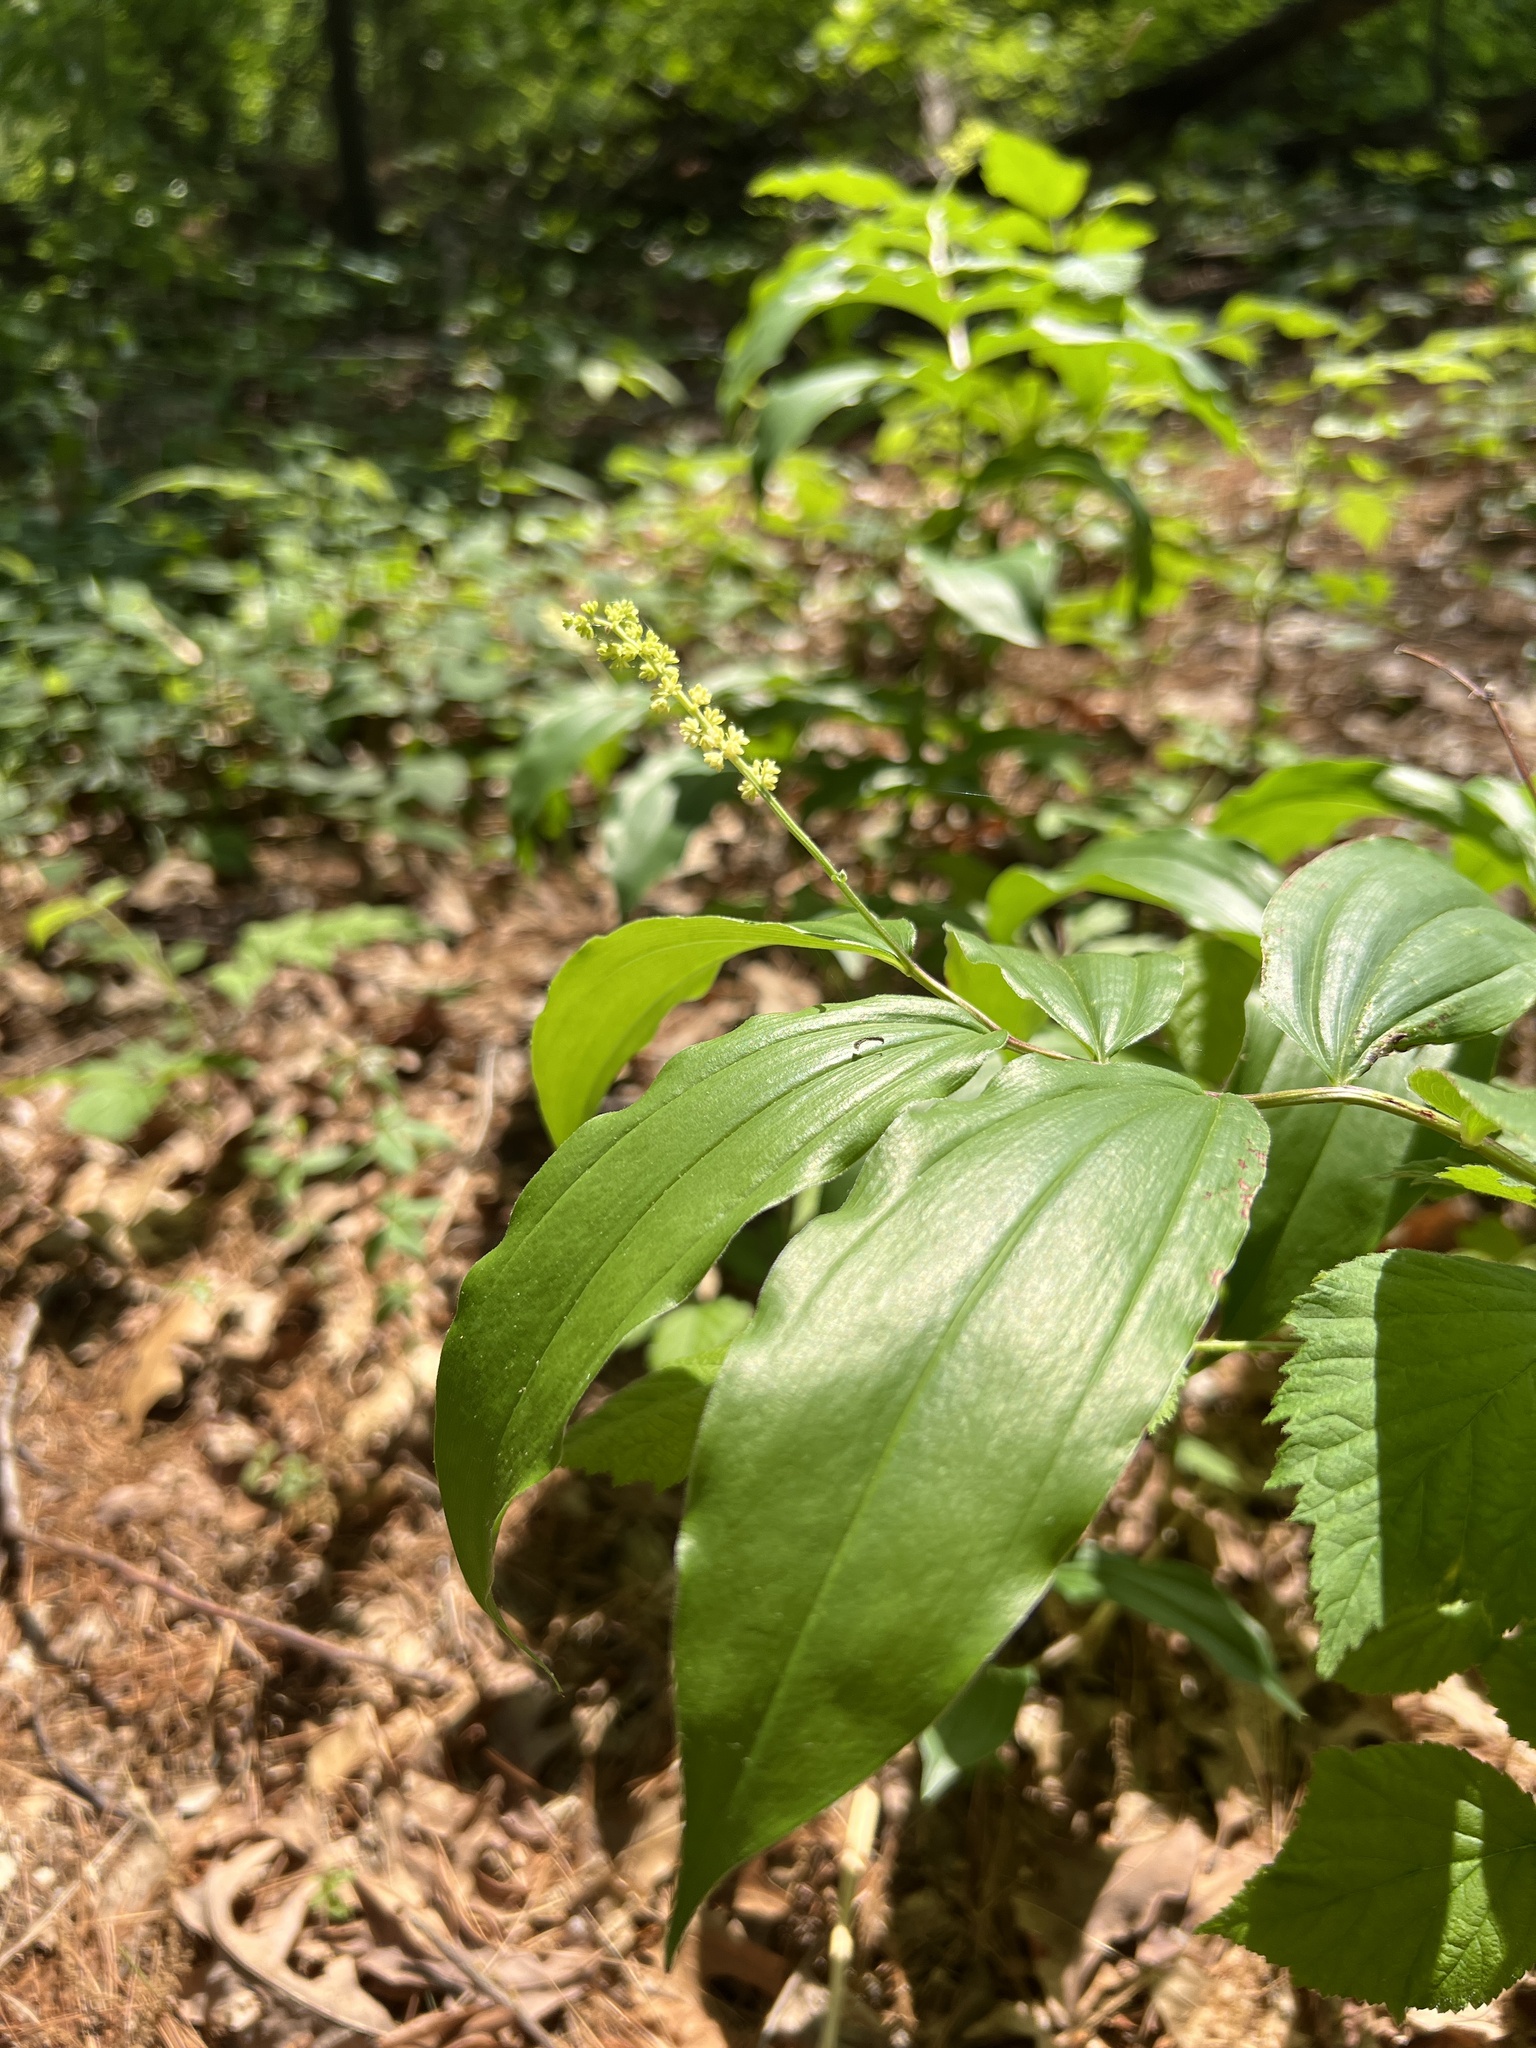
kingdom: Plantae
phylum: Tracheophyta
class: Liliopsida
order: Asparagales
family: Asparagaceae
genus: Maianthemum
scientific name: Maianthemum racemosum
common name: False spikenard
